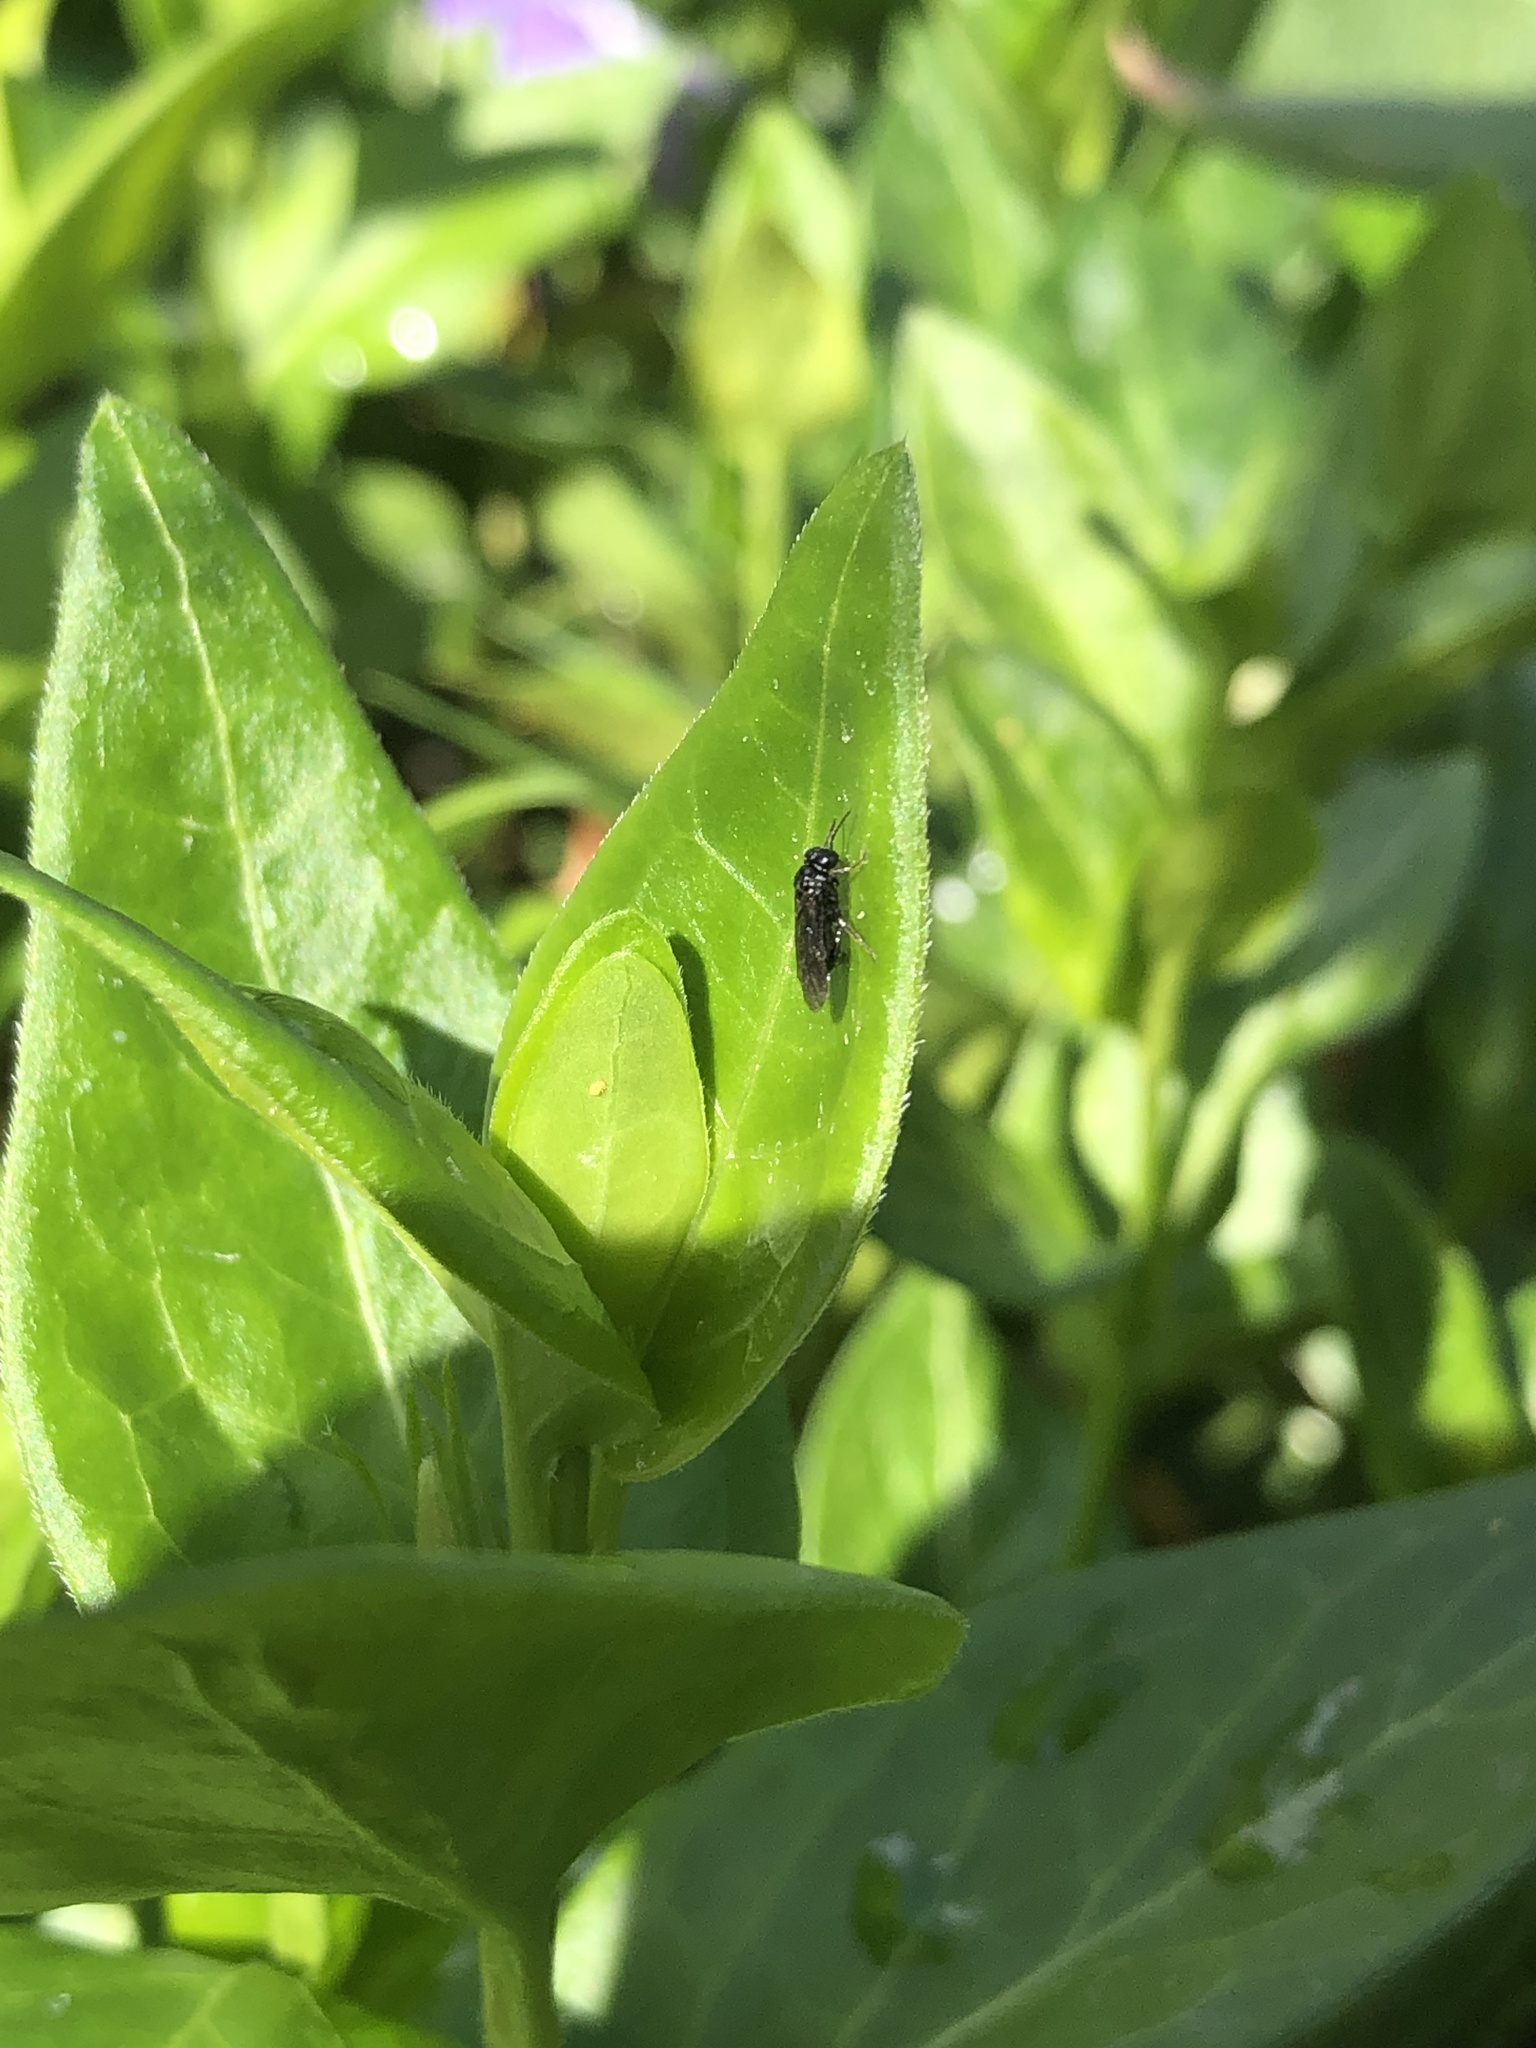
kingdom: Animalia
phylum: Arthropoda
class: Insecta
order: Hymenoptera
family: Tenthredinidae
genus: Fenusa
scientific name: Fenusa ulmi
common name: Elm leafminer
